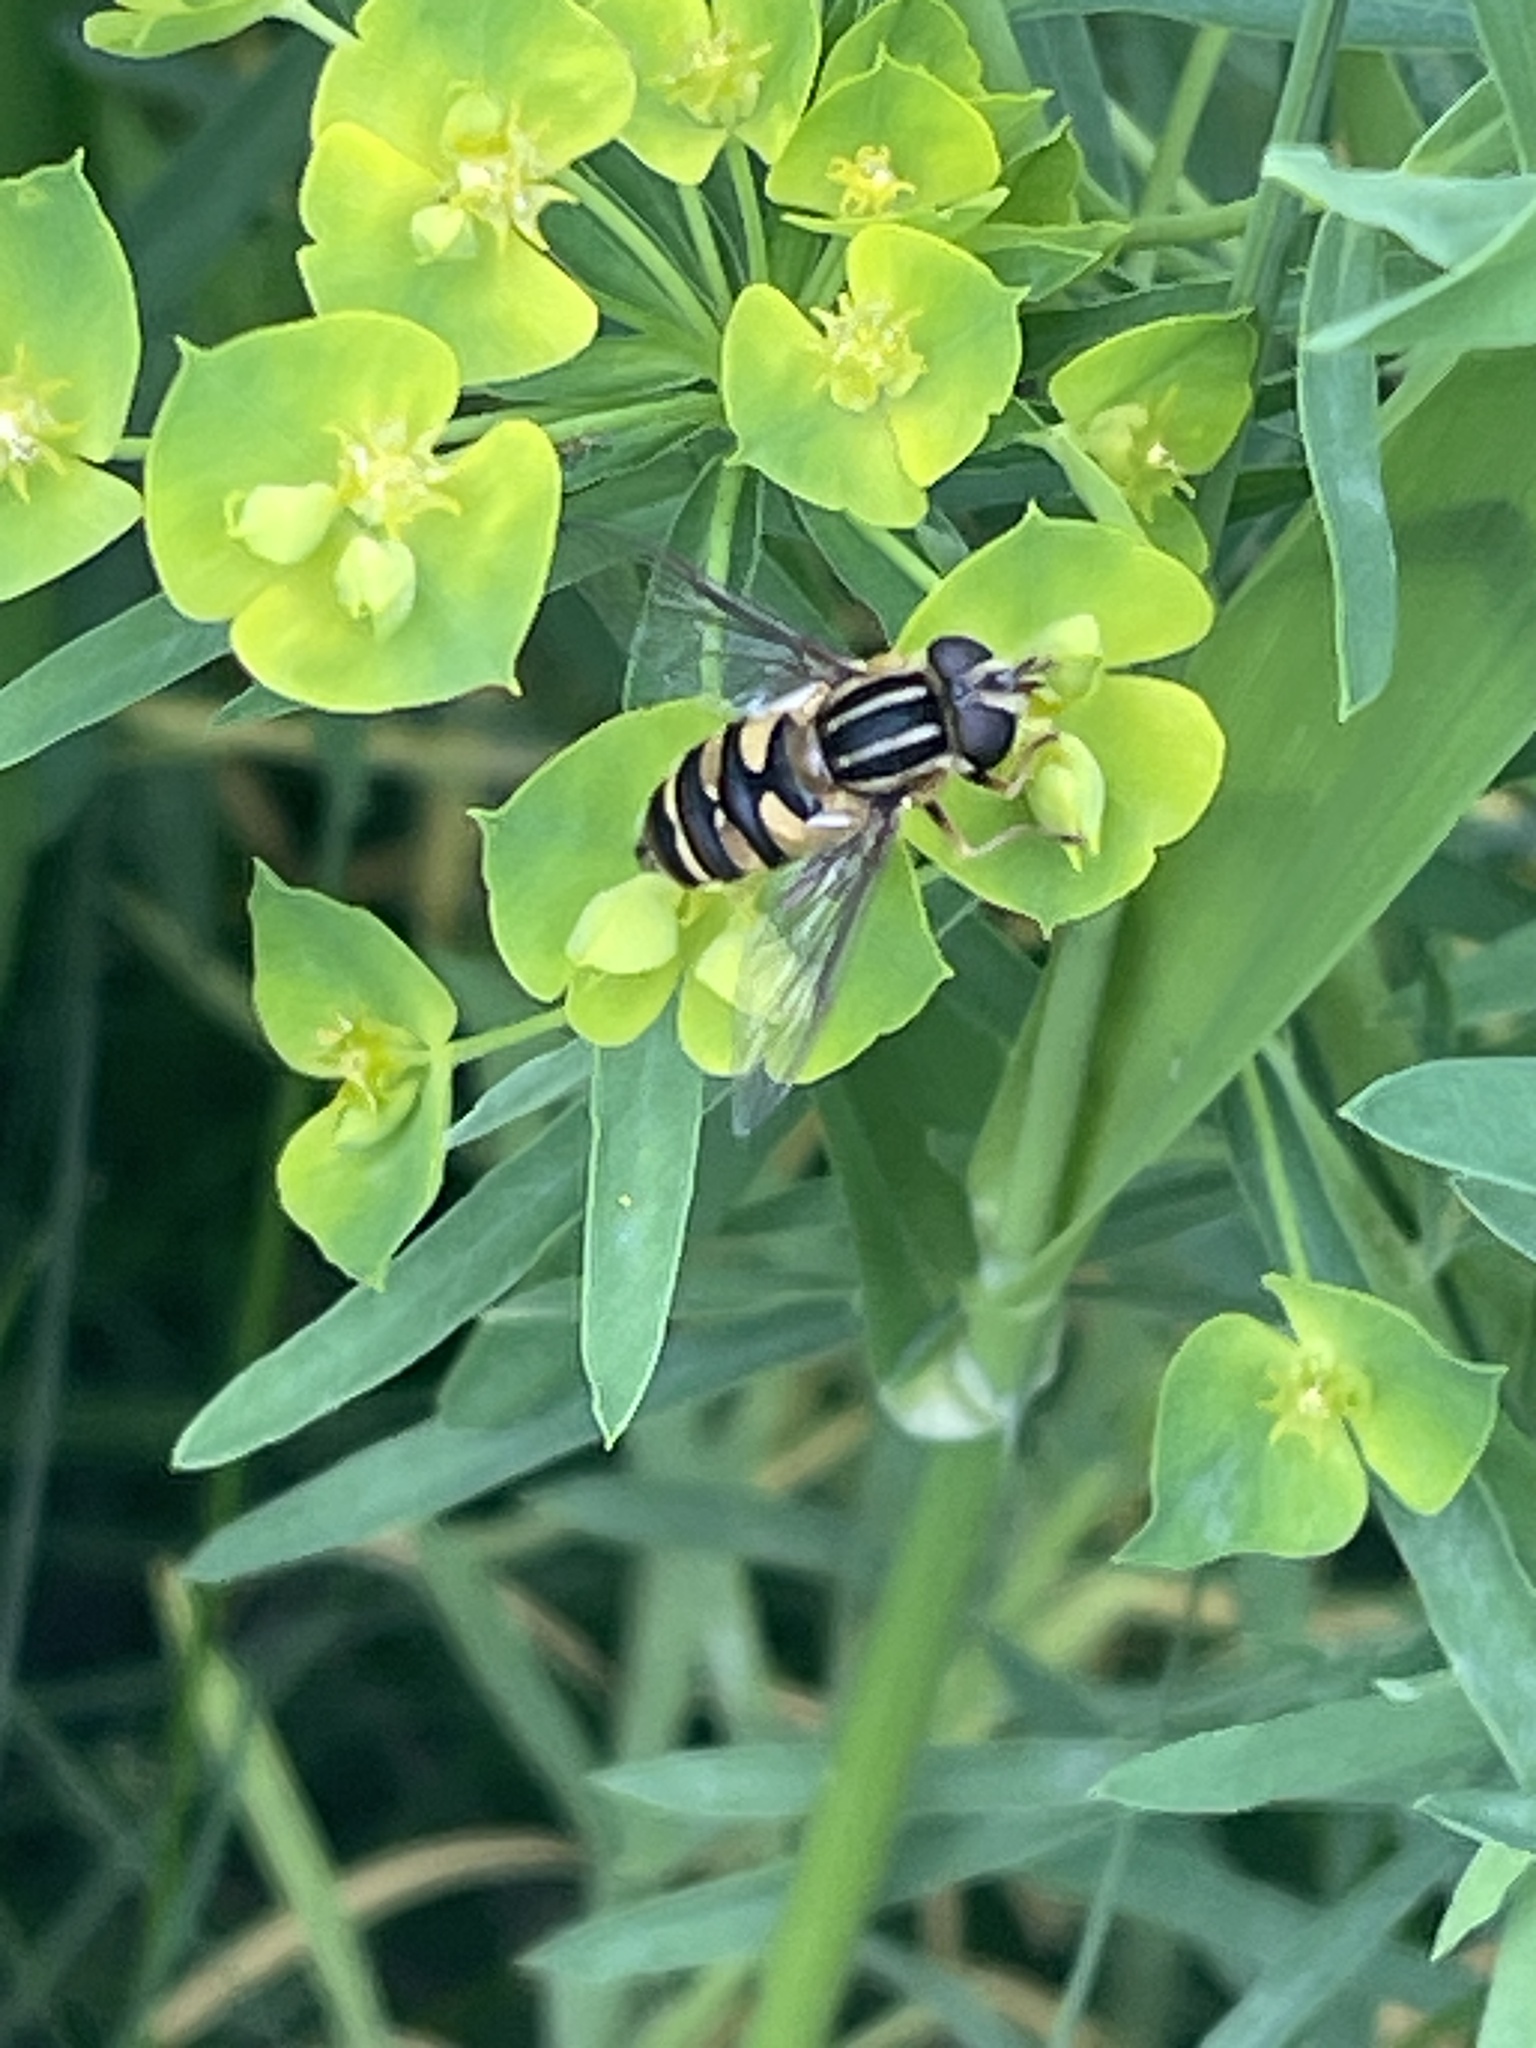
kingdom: Animalia
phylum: Arthropoda
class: Insecta
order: Diptera
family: Syrphidae
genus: Helophilus
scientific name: Helophilus fasciatus
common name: Narrow-headed marsh fly
